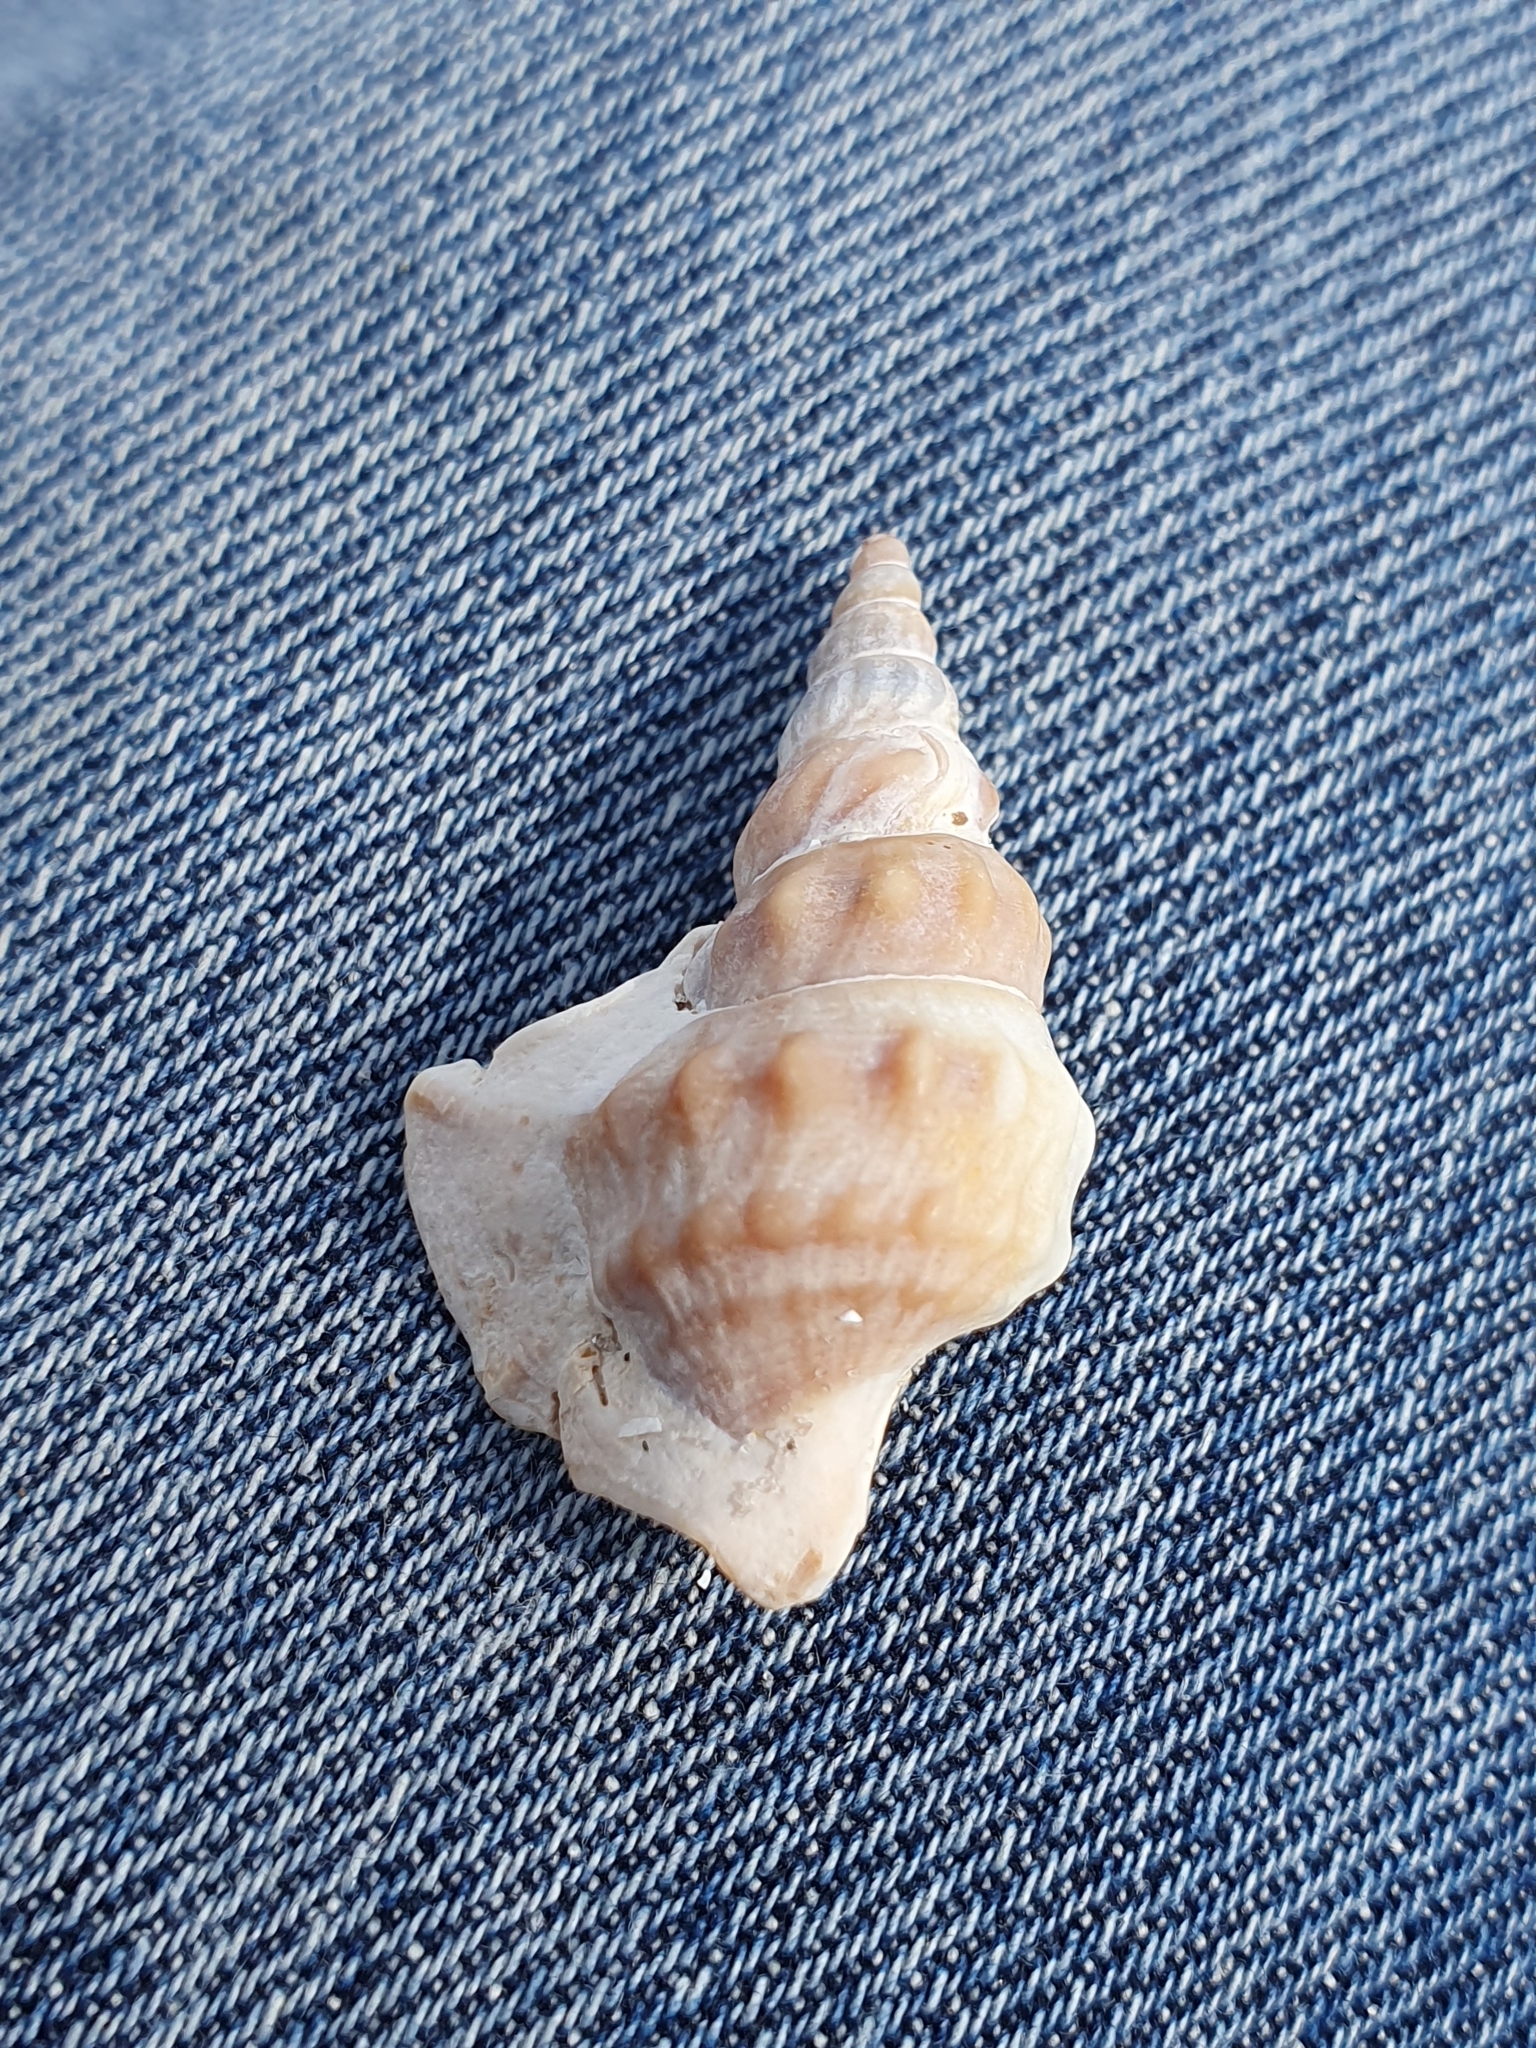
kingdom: Animalia
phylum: Mollusca
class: Gastropoda
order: Littorinimorpha
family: Aporrhaidae
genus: Aporrhais
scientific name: Aporrhais pespelecani
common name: Common pelican’s foot
